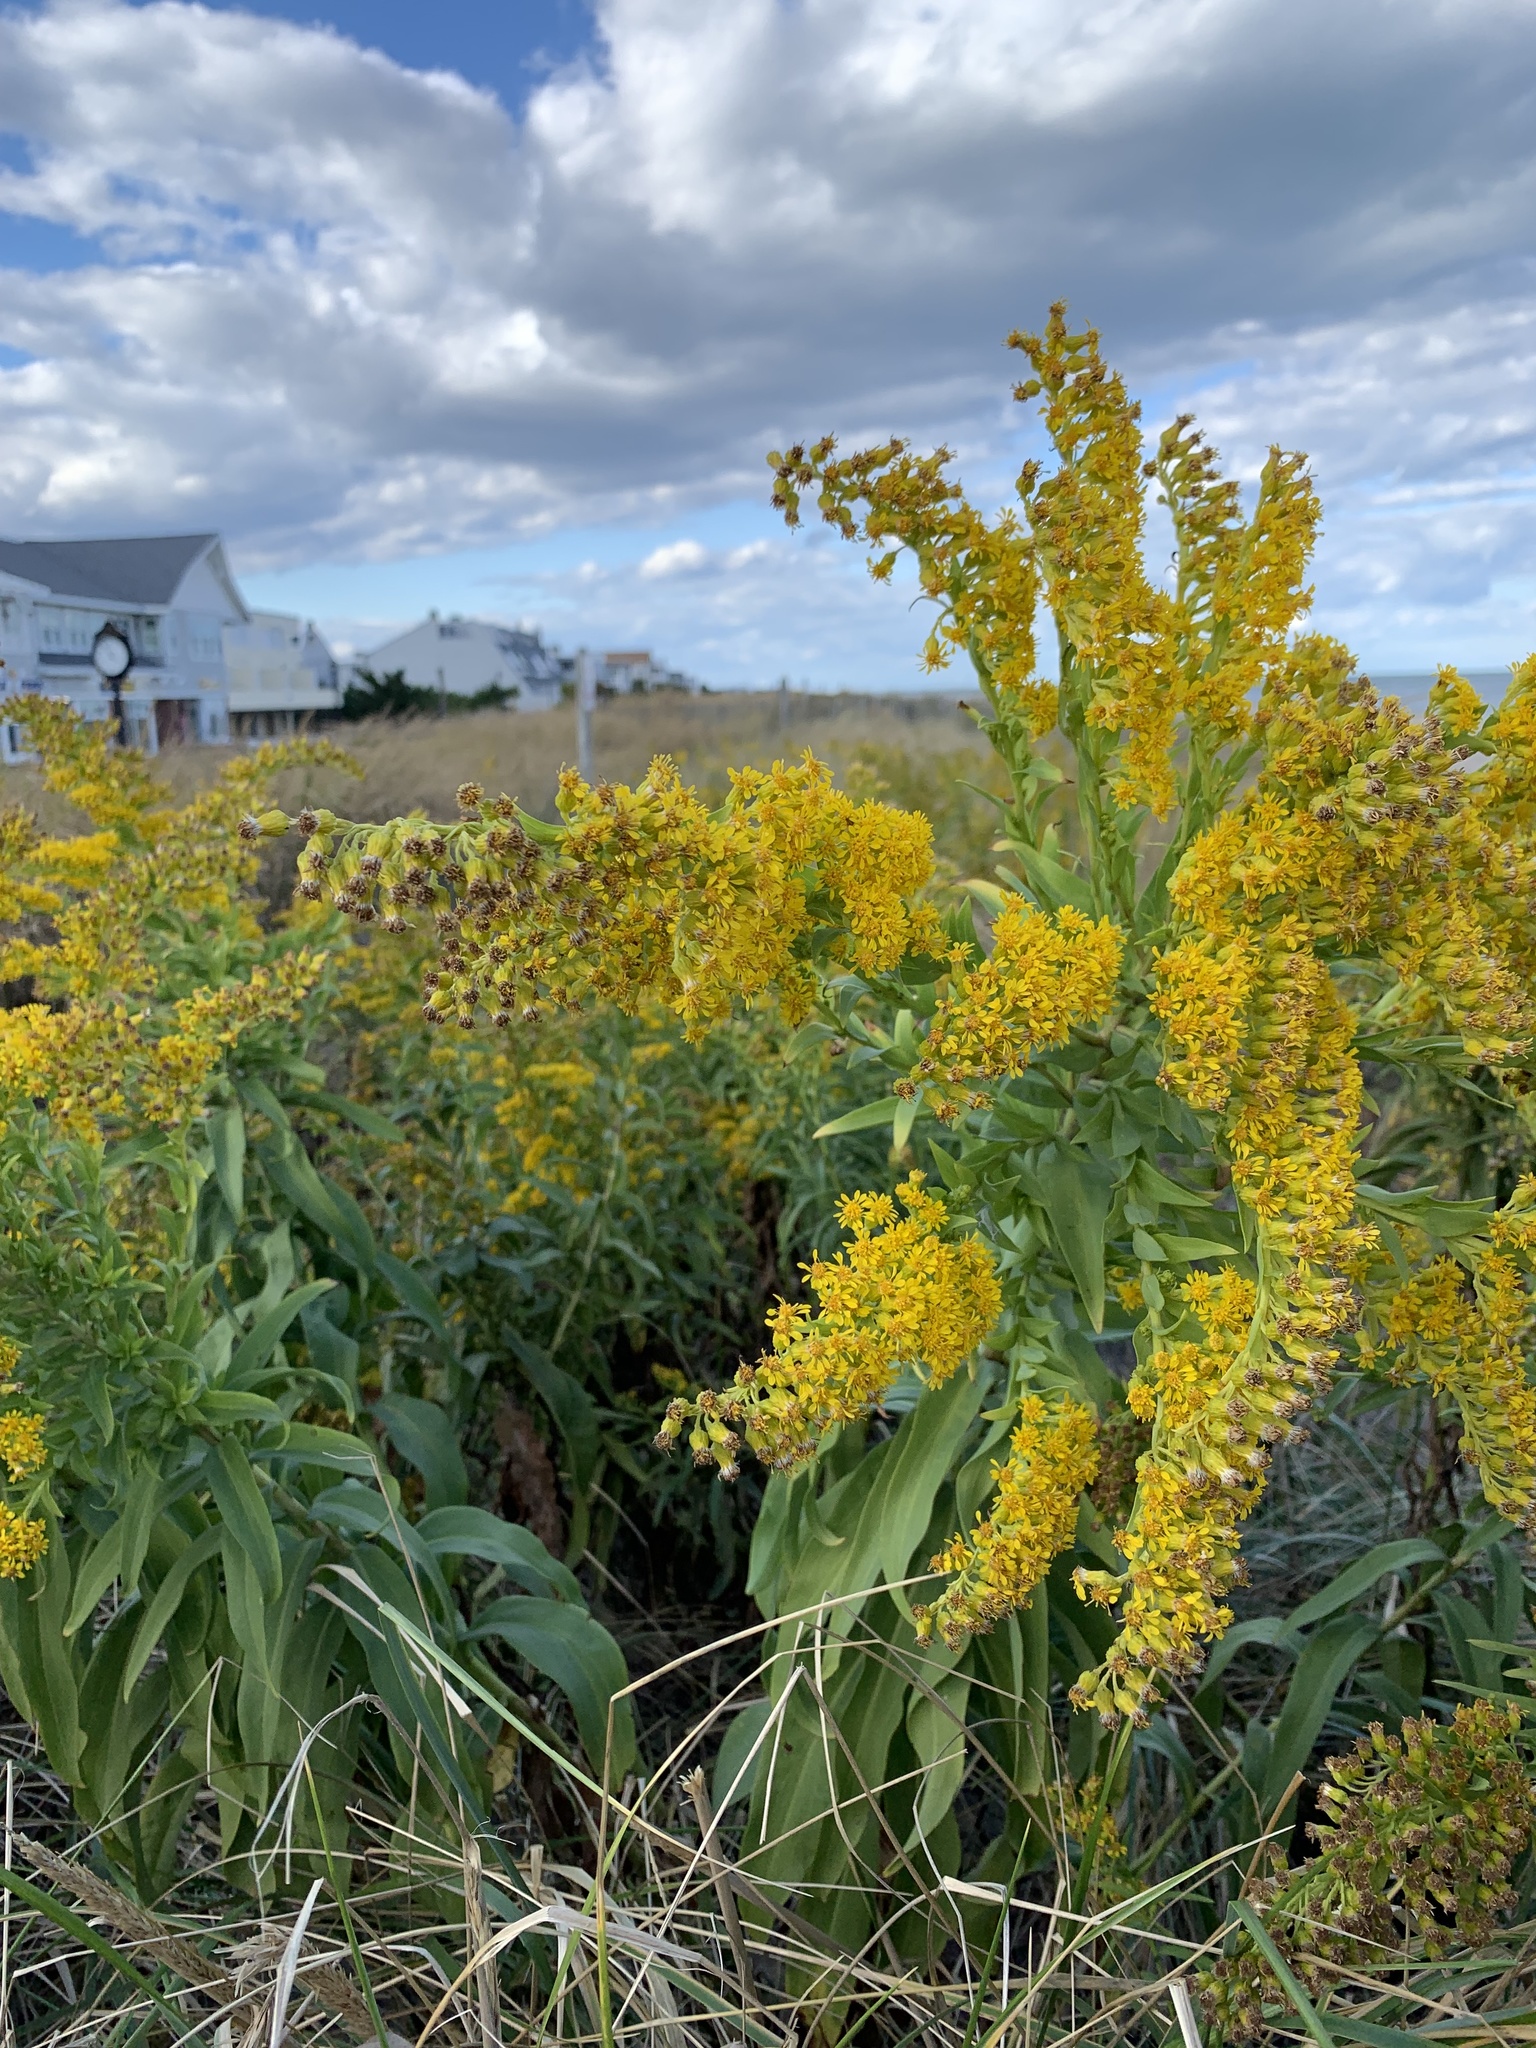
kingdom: Plantae
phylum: Tracheophyta
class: Magnoliopsida
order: Asterales
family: Asteraceae
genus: Solidago
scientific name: Solidago sempervirens
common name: Salt-marsh goldenrod
